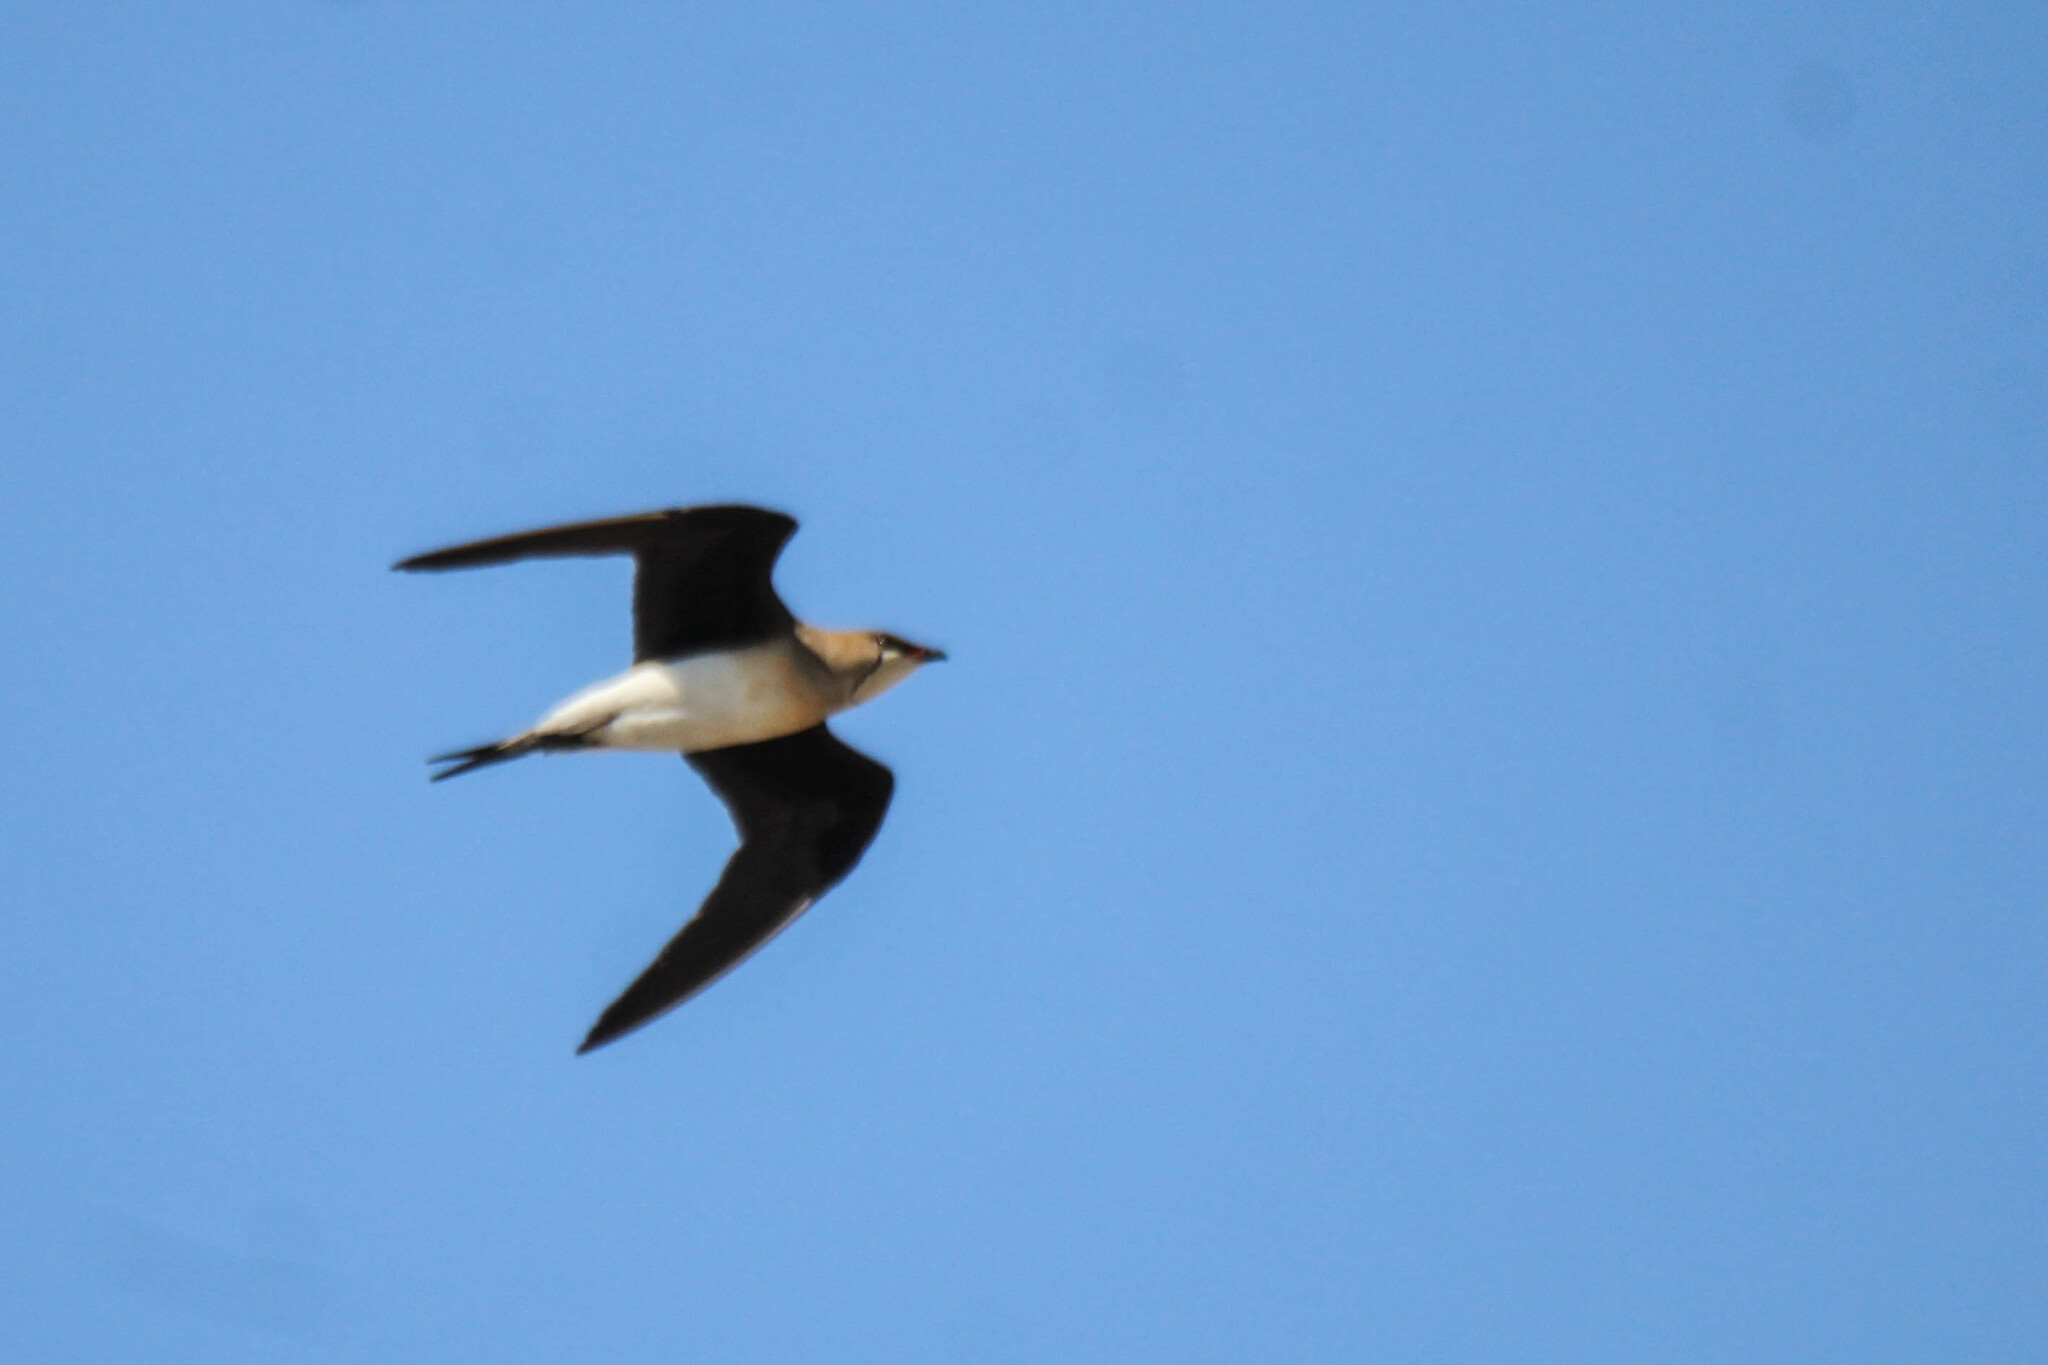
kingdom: Animalia
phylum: Chordata
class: Aves
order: Charadriiformes
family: Glareolidae
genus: Glareola
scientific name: Glareola nordmanni
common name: Black-winged pratincole
